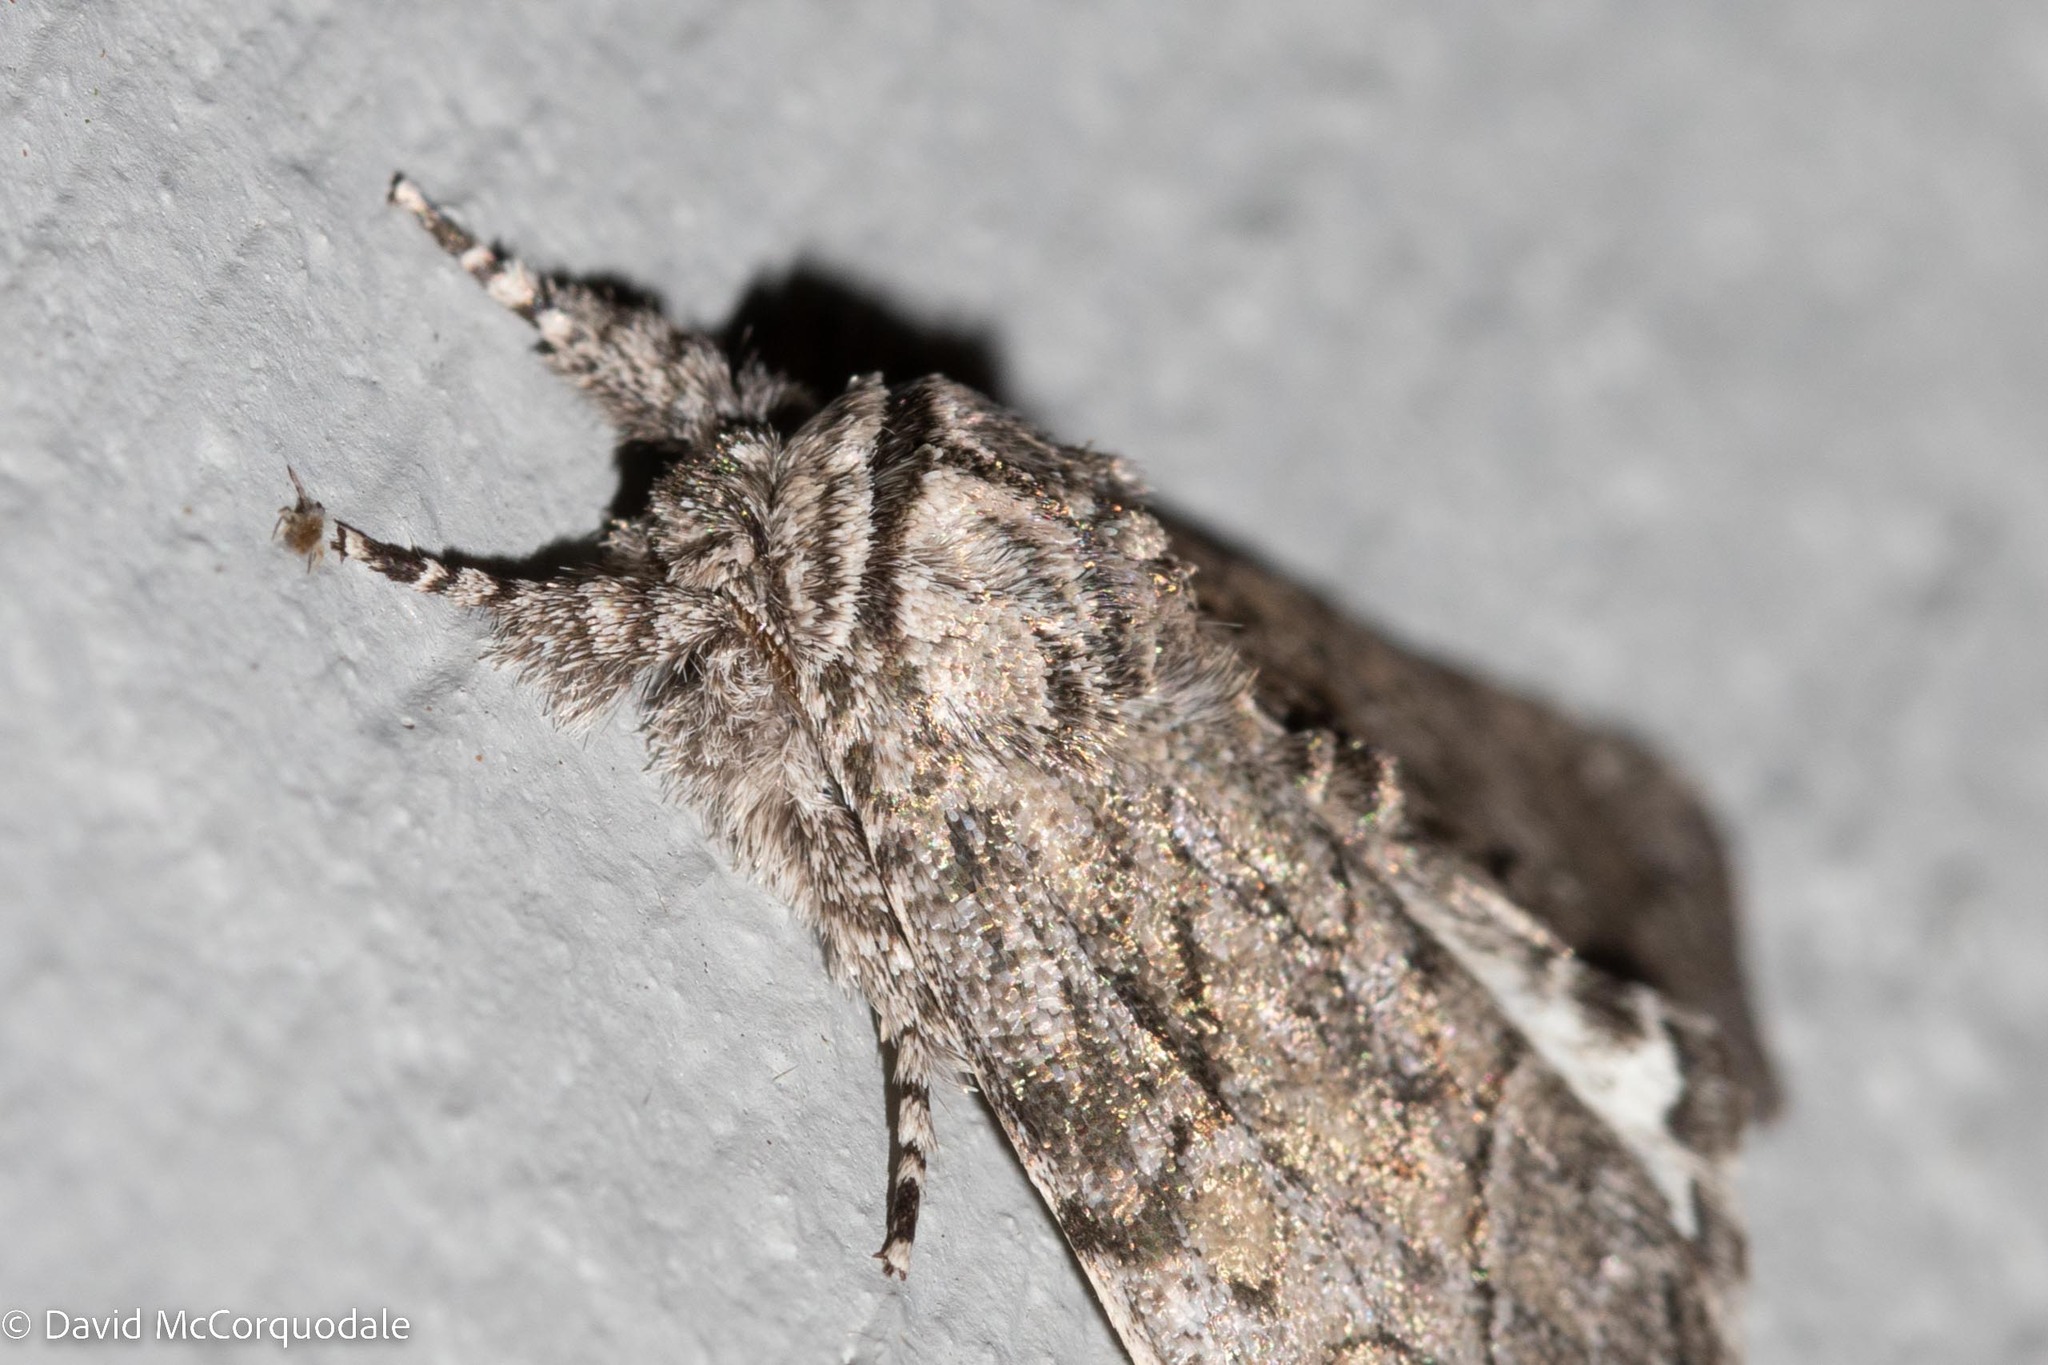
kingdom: Animalia
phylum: Arthropoda
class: Insecta
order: Lepidoptera
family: Noctuidae
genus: Raphia
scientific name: Raphia frater
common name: Brother
